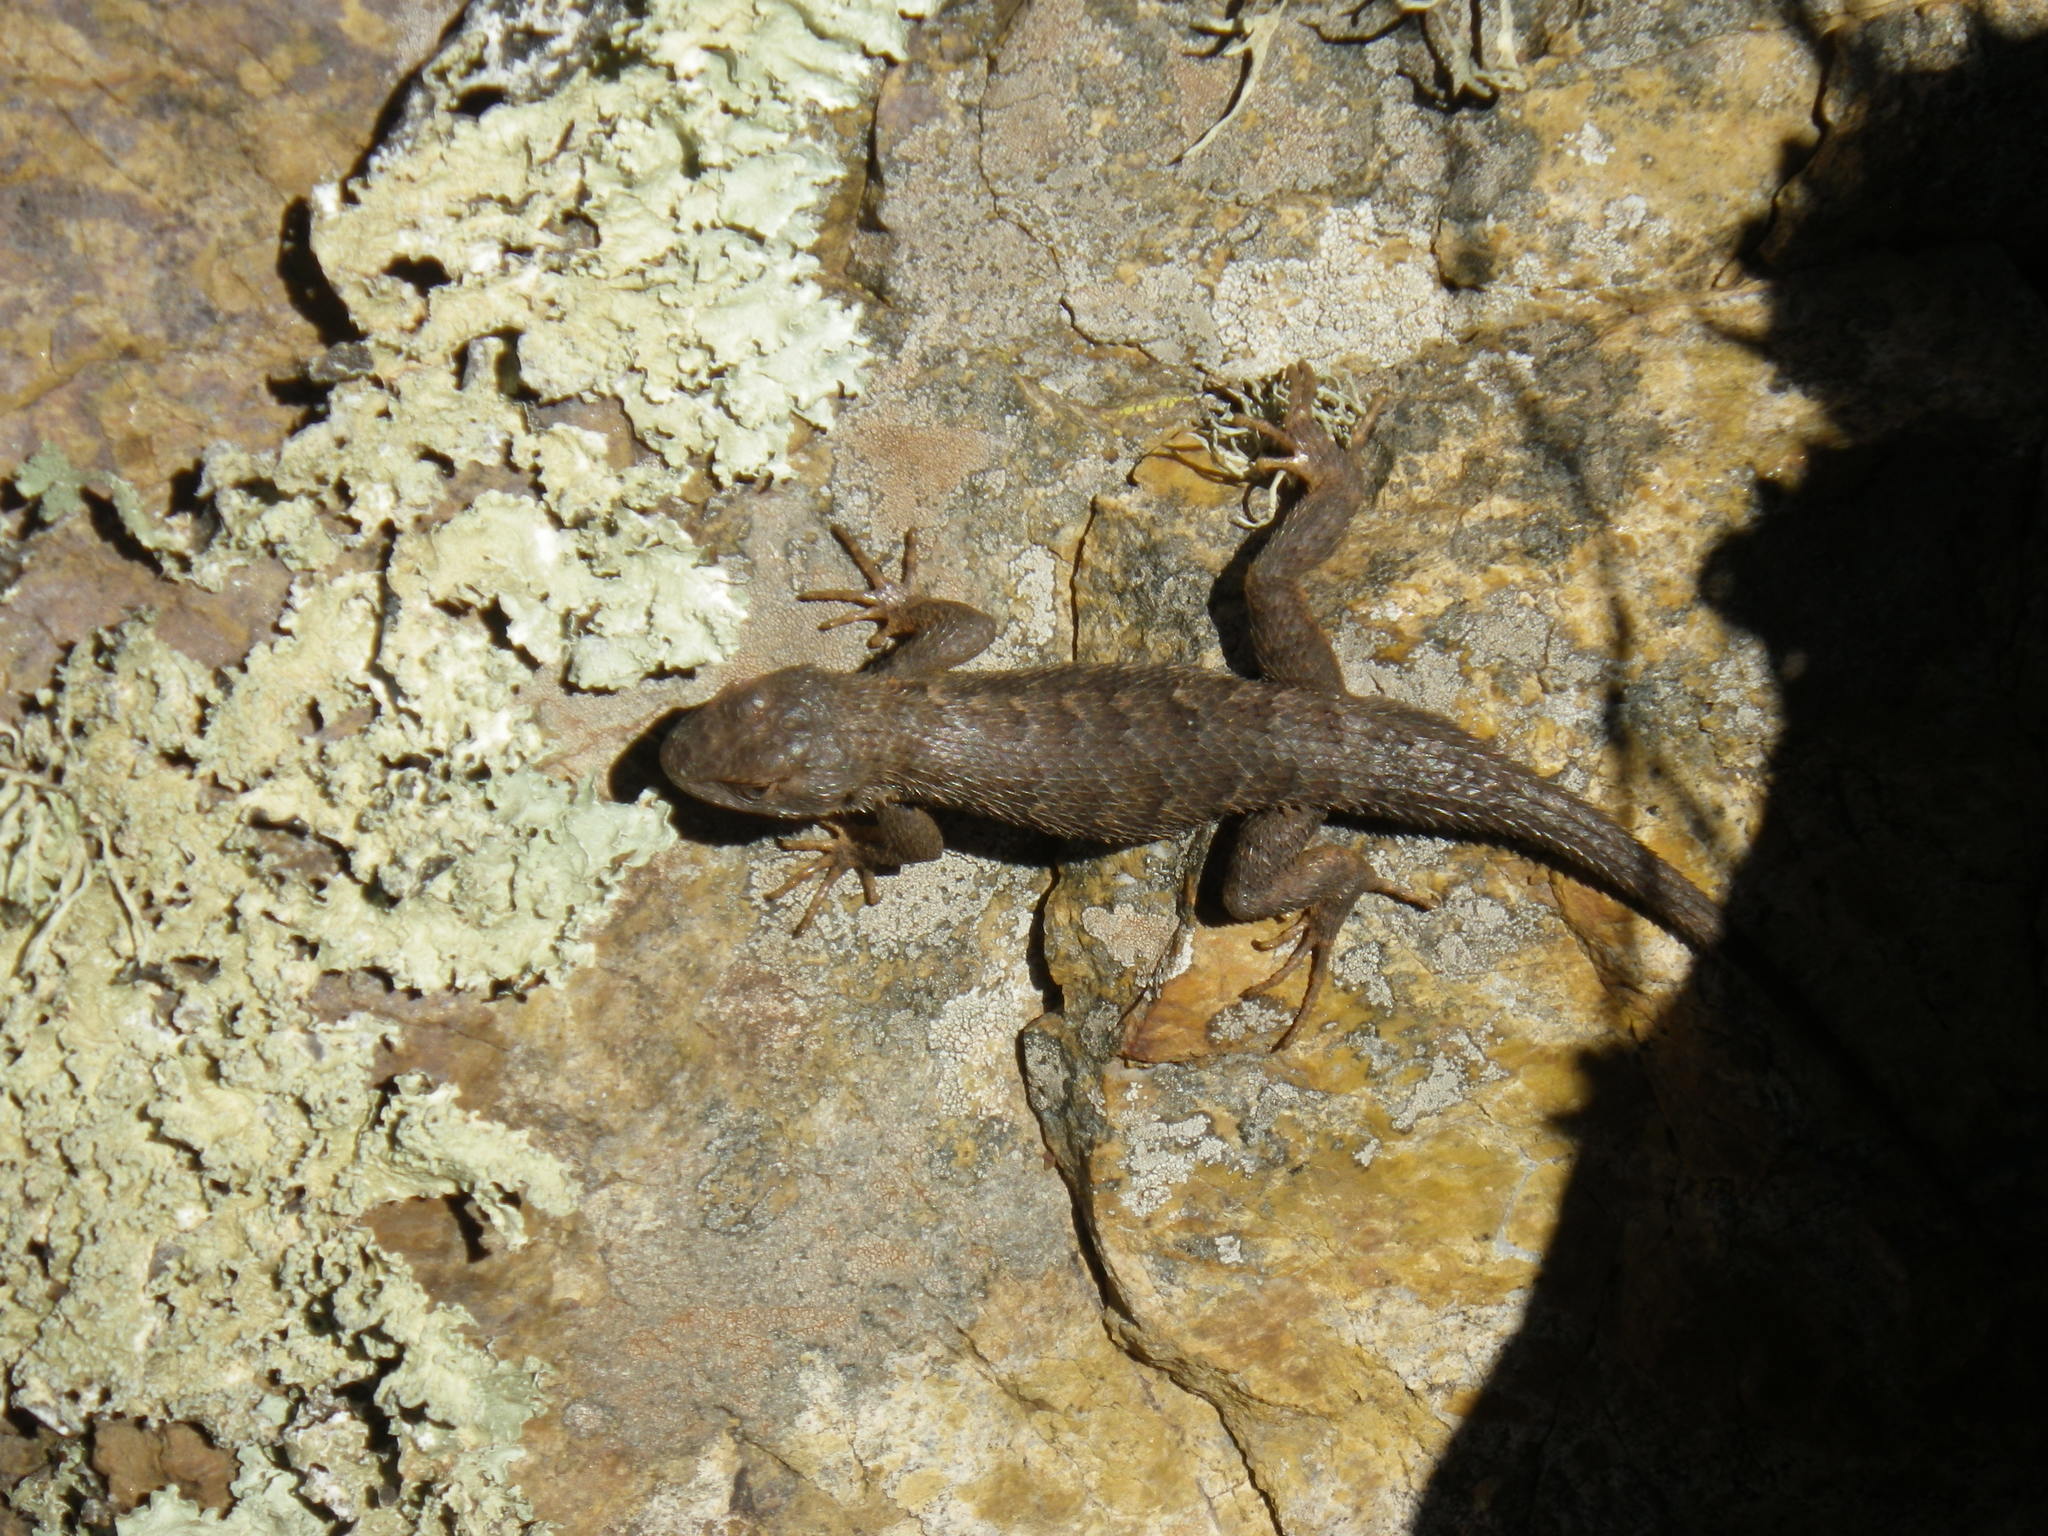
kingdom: Animalia
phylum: Chordata
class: Squamata
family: Phrynosomatidae
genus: Sceloporus
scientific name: Sceloporus occidentalis
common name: Western fence lizard
